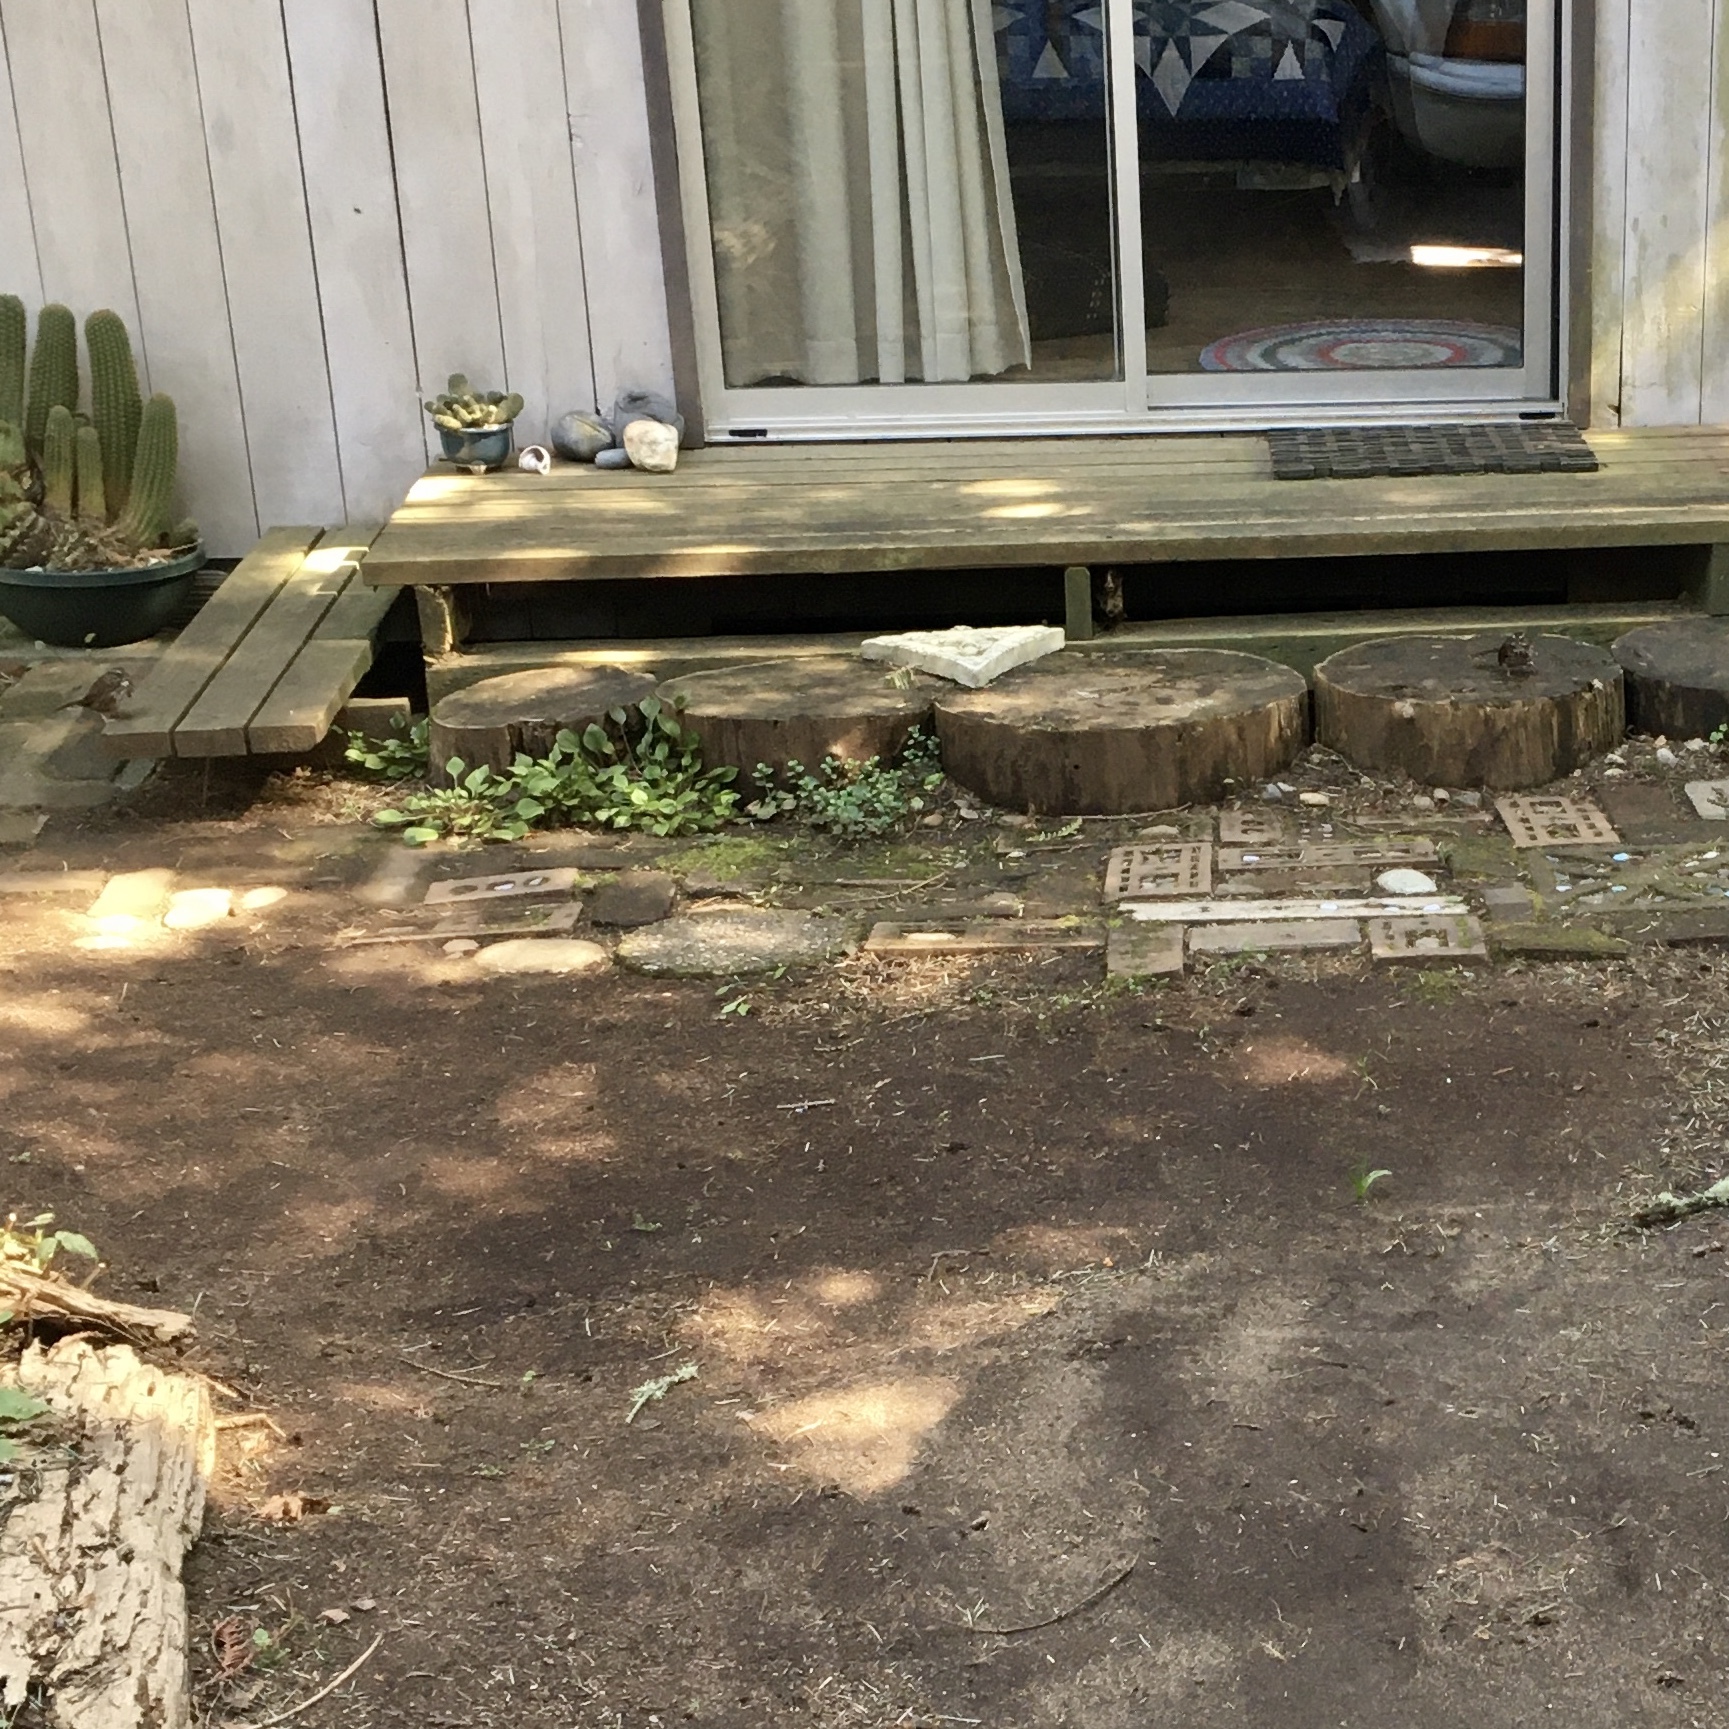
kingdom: Animalia
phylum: Chordata
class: Aves
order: Passeriformes
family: Passerellidae
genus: Melospiza
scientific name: Melospiza melodia
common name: Song sparrow
